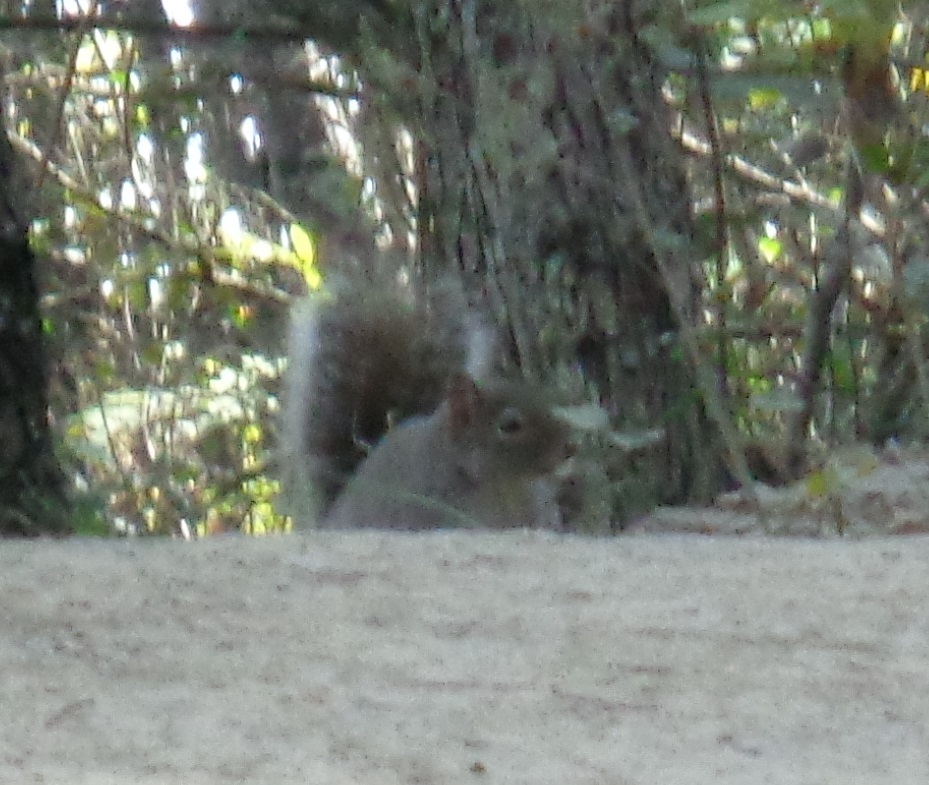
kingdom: Animalia
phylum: Chordata
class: Mammalia
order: Rodentia
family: Sciuridae
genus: Sciurus
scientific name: Sciurus alleni
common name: Allen's squirrel
